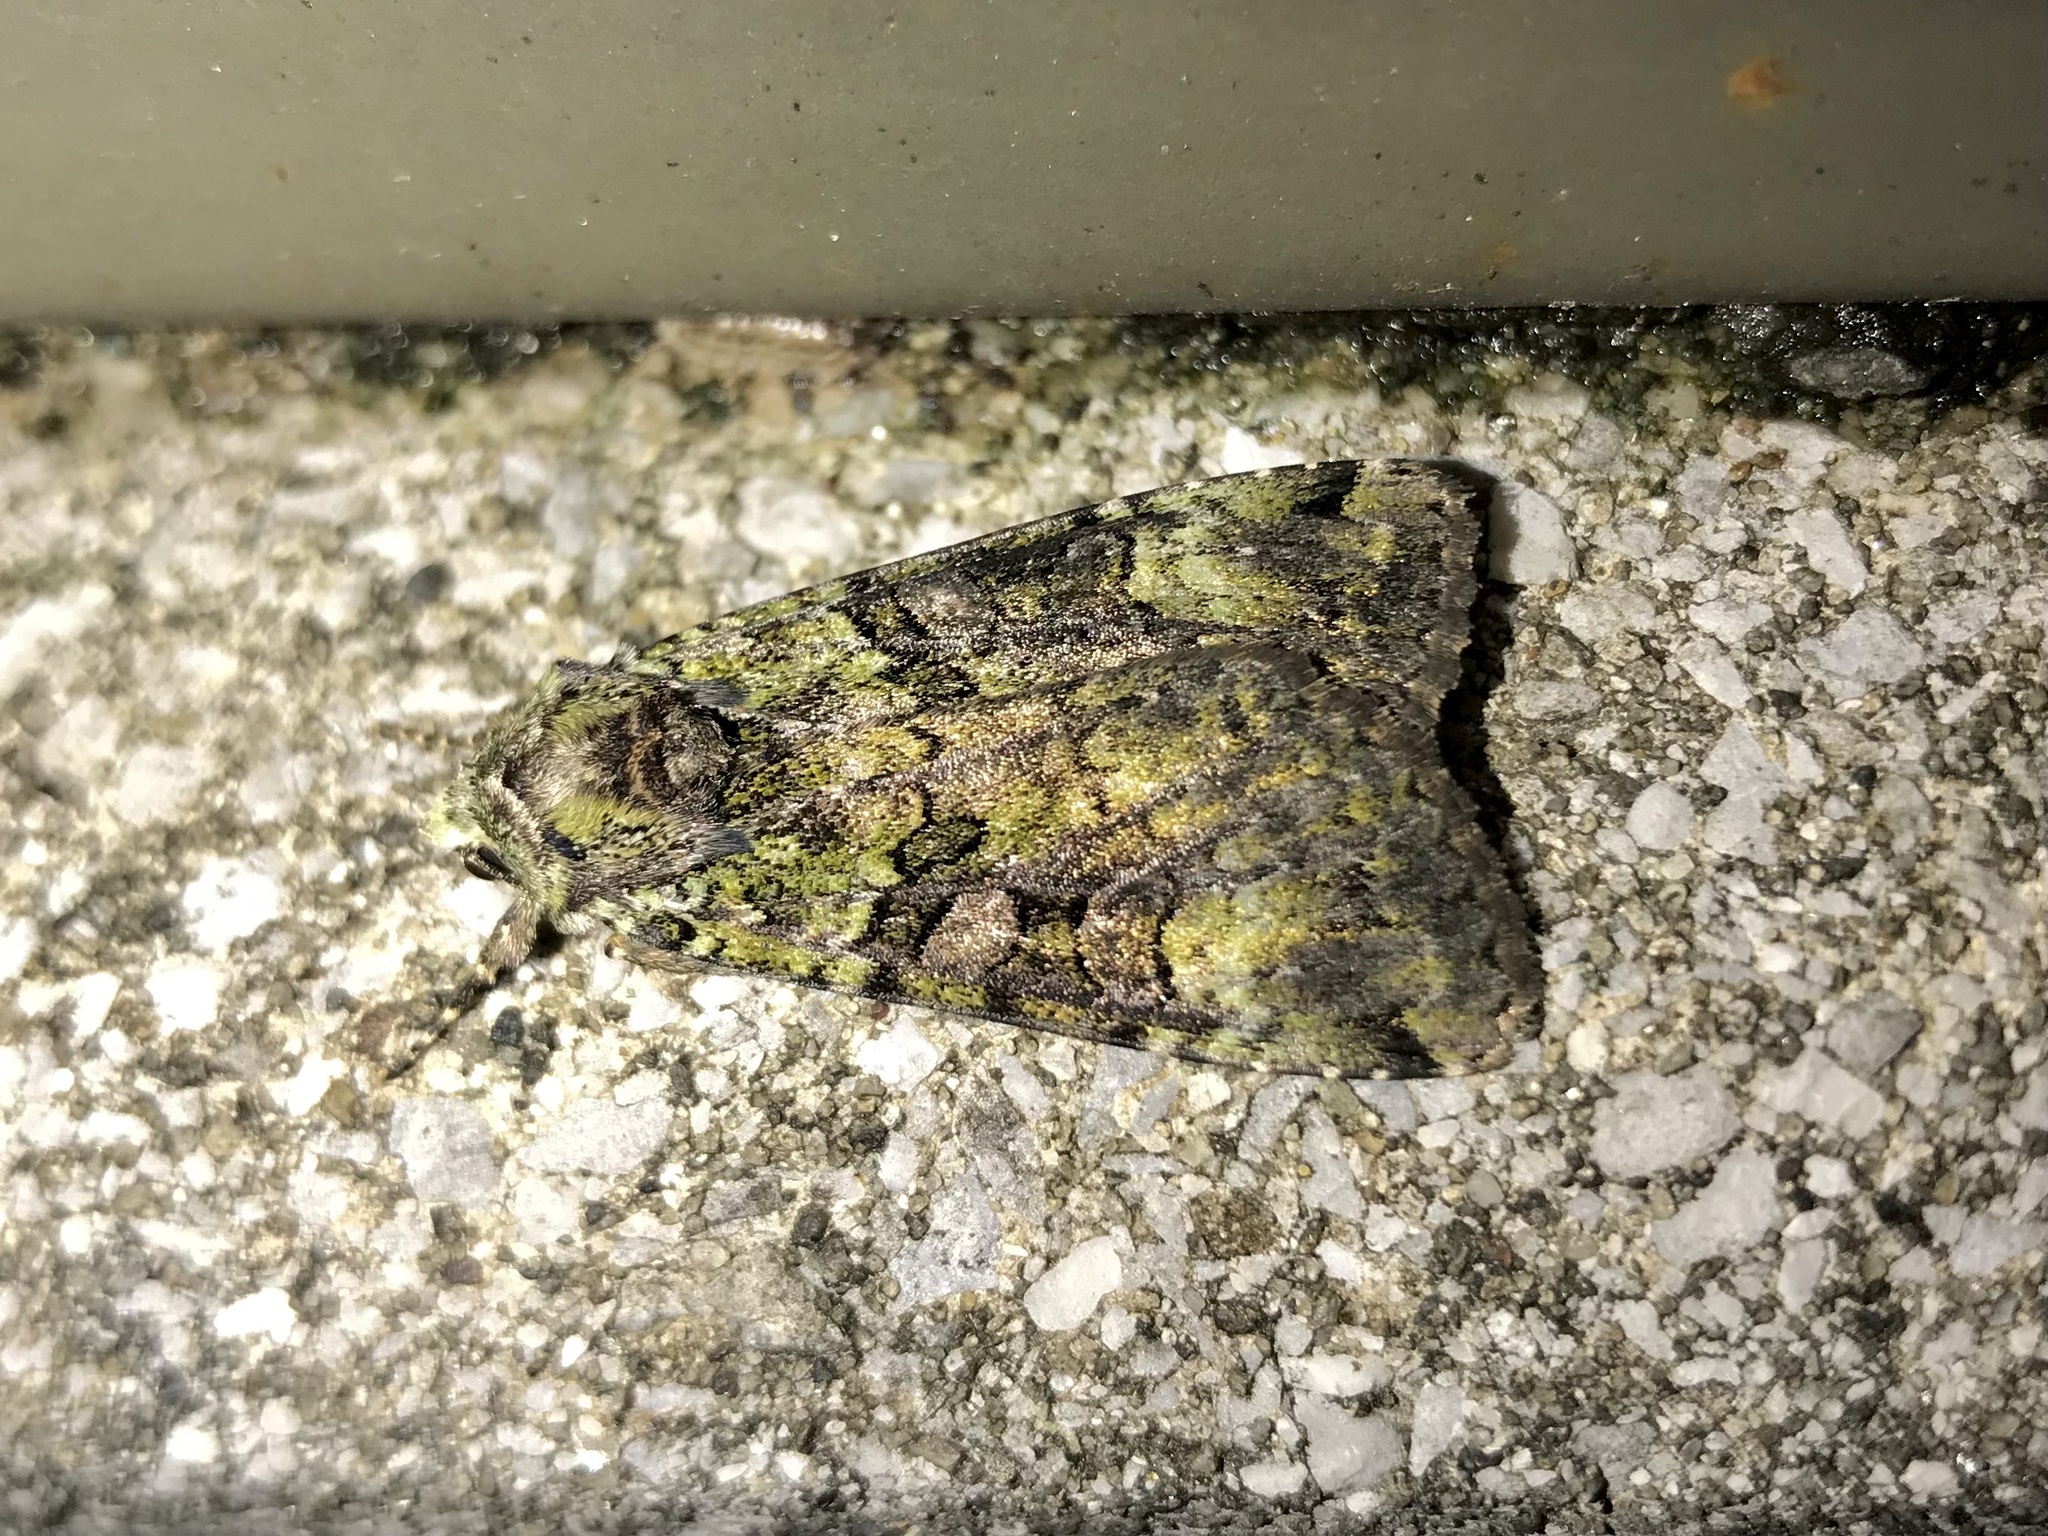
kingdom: Animalia
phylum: Arthropoda
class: Insecta
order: Lepidoptera
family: Noctuidae
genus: Anaplectoides
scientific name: Anaplectoides prasina
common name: Green arches
